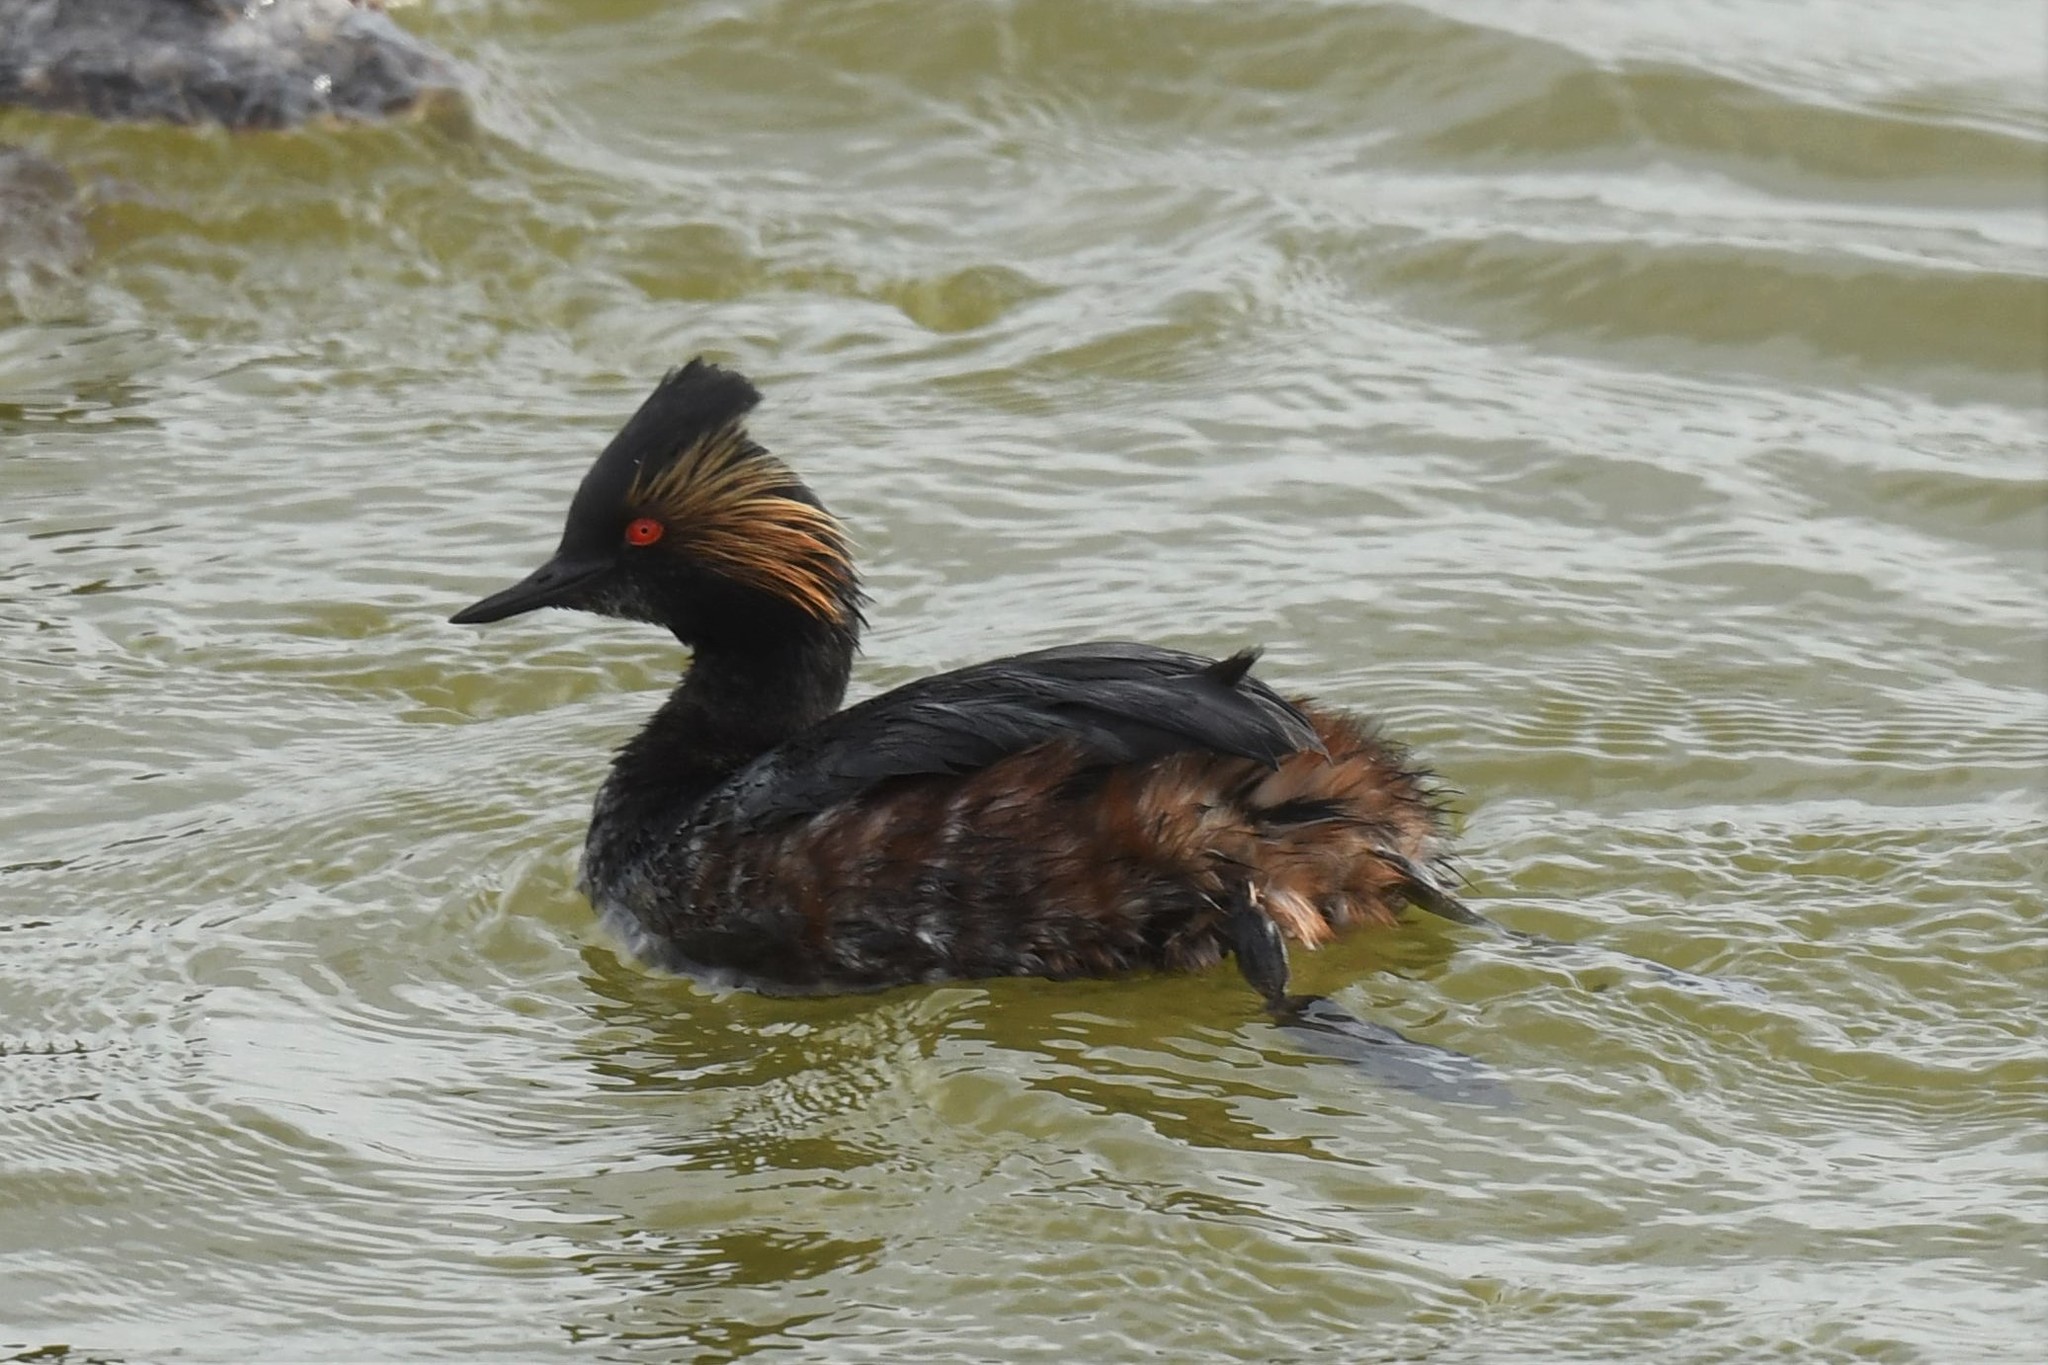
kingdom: Animalia
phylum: Chordata
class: Aves
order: Podicipediformes
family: Podicipedidae
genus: Podiceps
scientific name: Podiceps nigricollis
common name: Black-necked grebe
